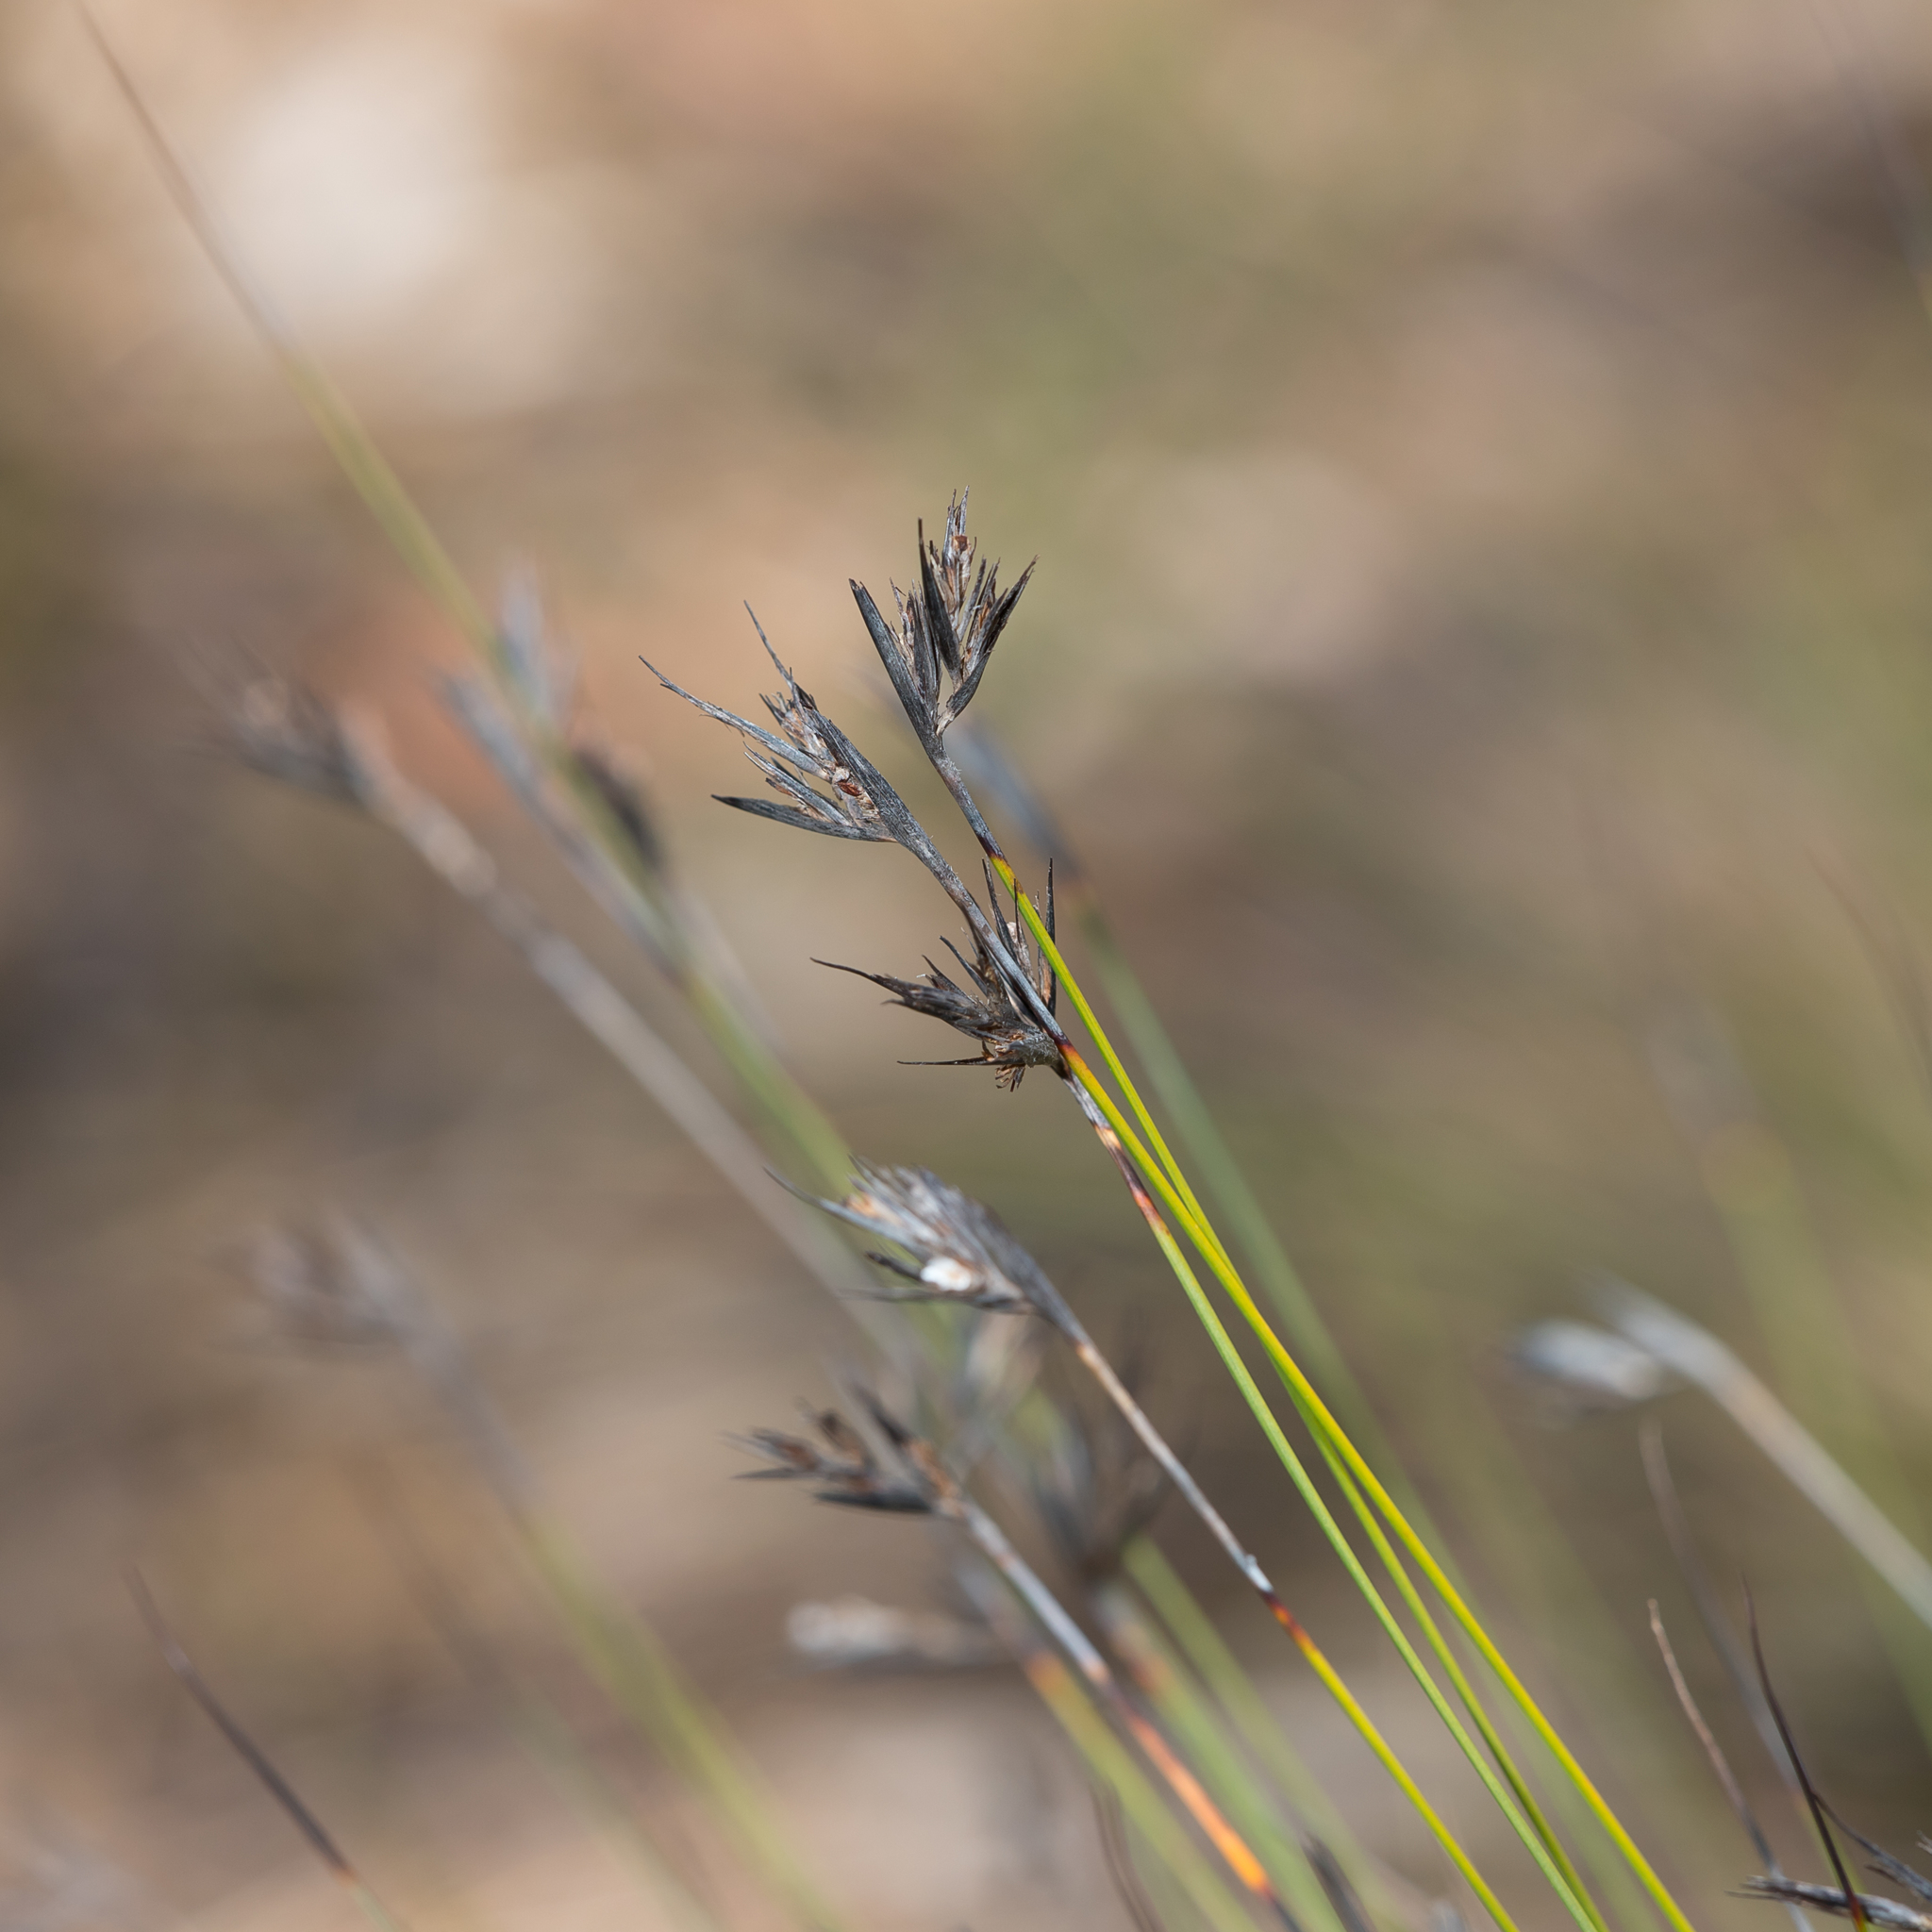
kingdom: Plantae
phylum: Tracheophyta
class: Liliopsida
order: Poales
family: Cyperaceae
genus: Lepidosperma
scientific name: Lepidosperma carphoides
